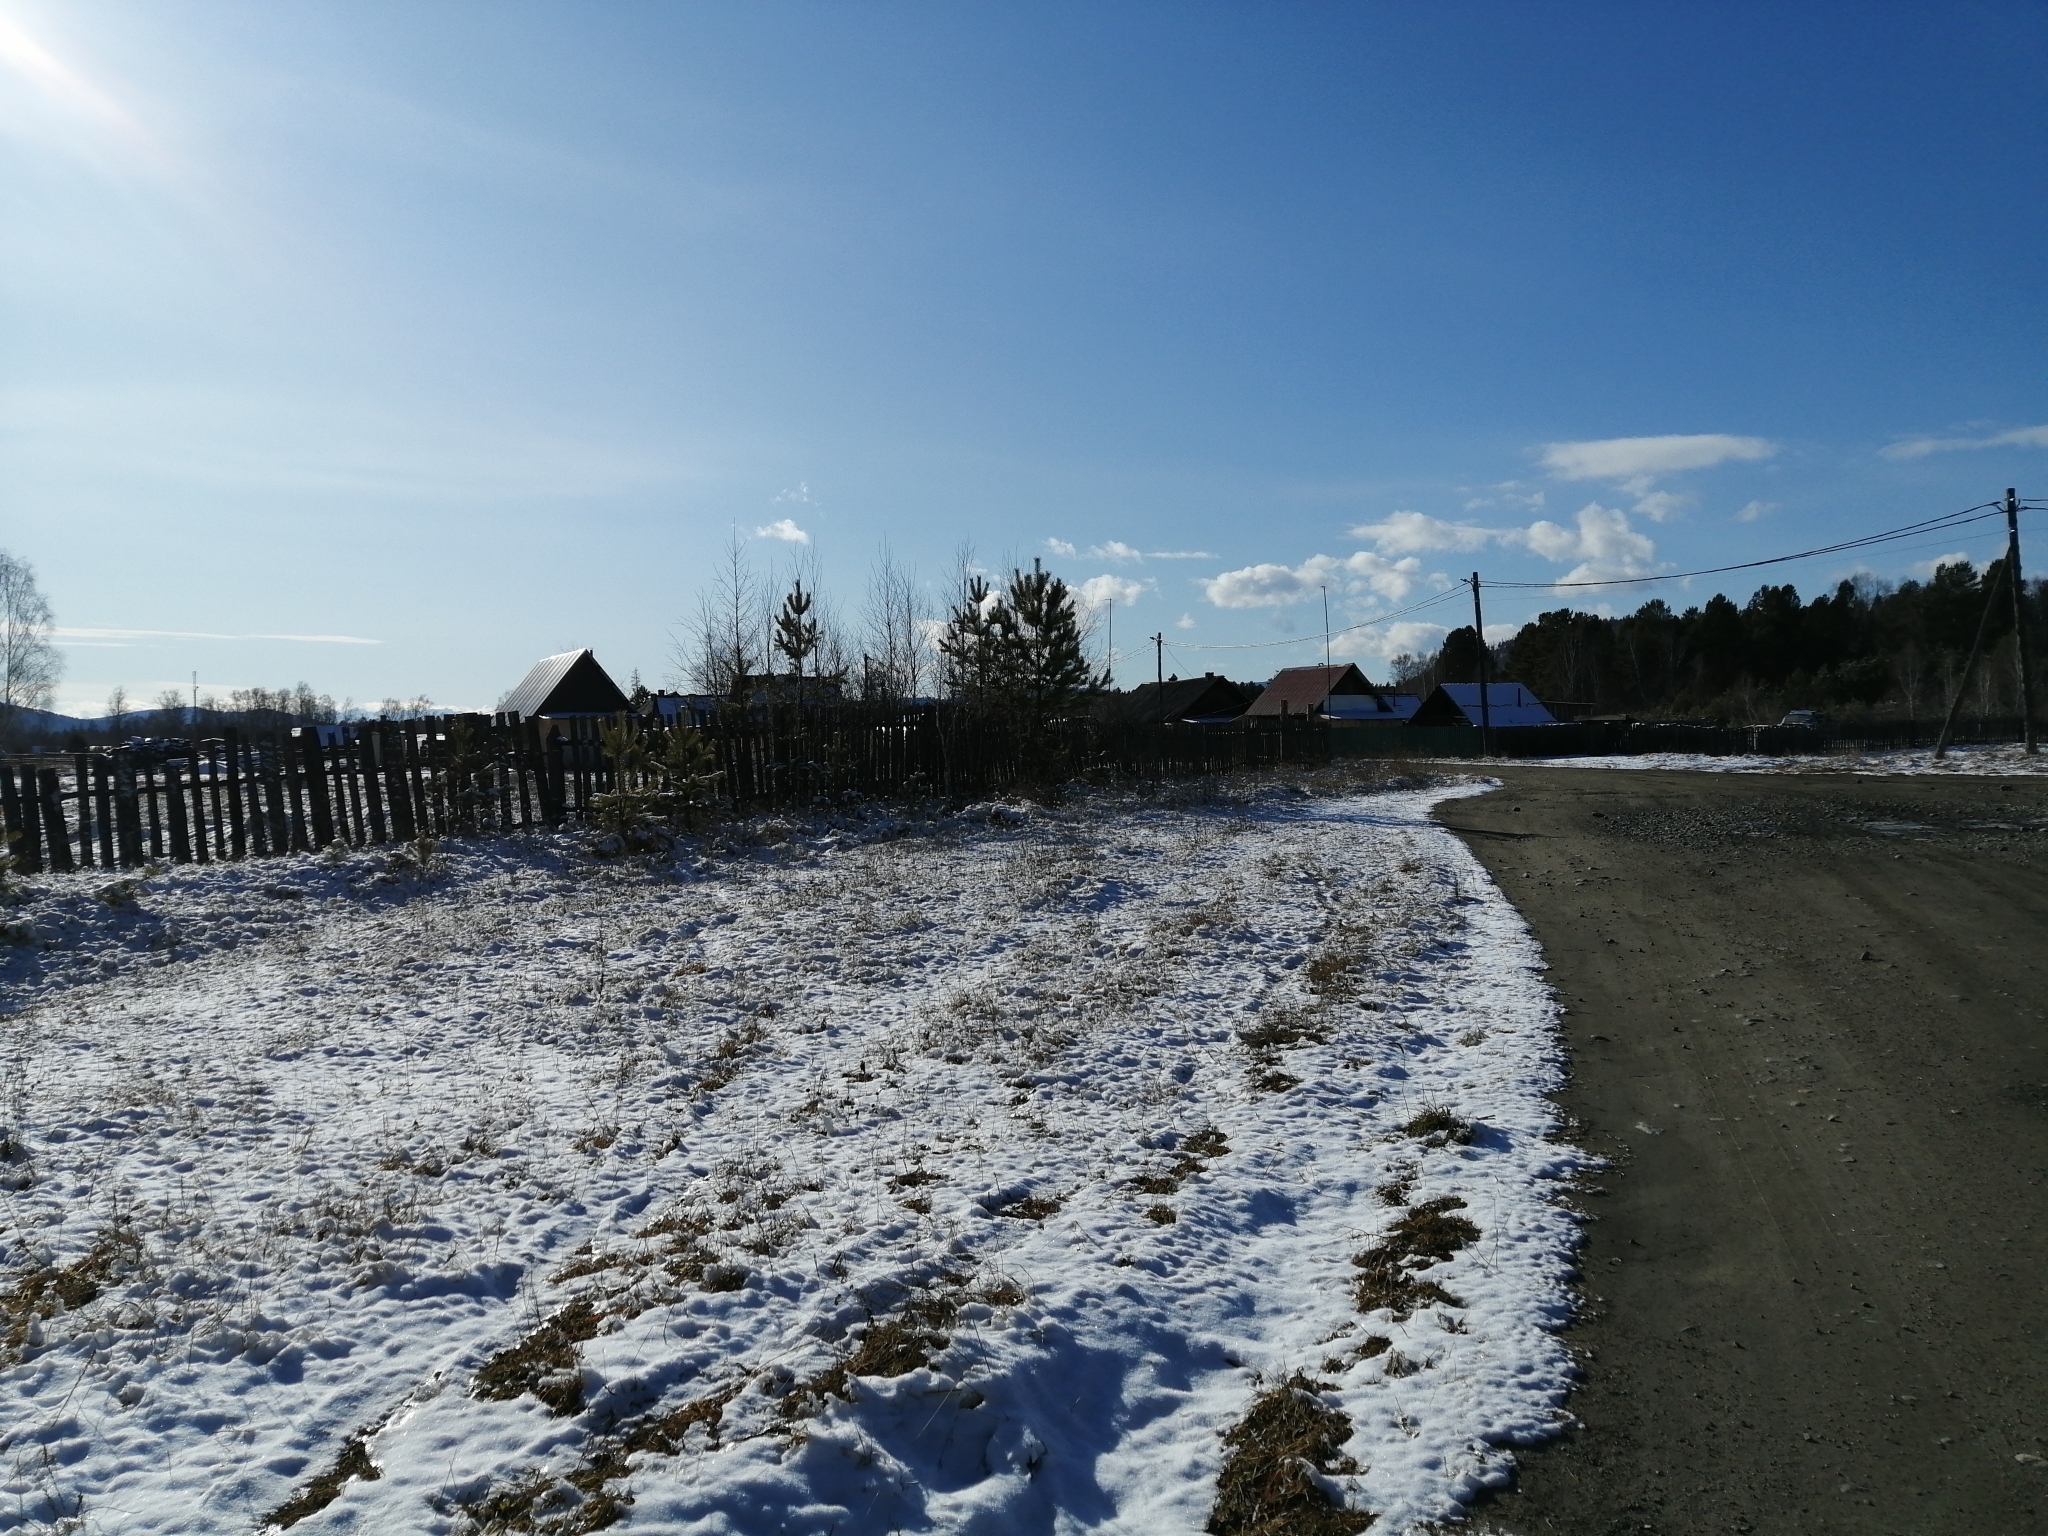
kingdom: Plantae
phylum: Tracheophyta
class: Pinopsida
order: Pinales
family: Pinaceae
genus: Pinus
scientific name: Pinus sylvestris
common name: Scots pine
